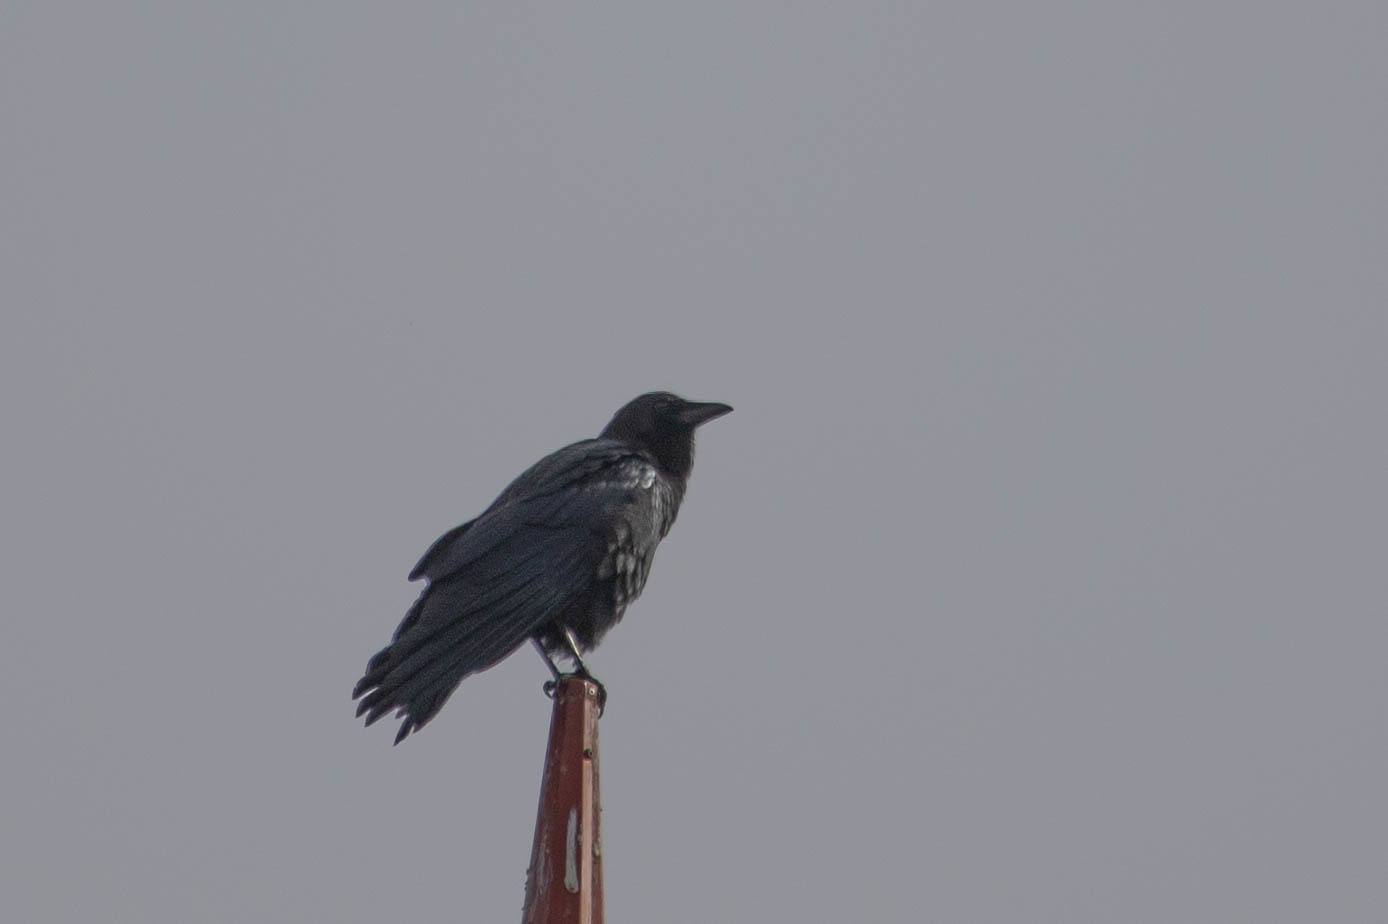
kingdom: Animalia
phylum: Chordata
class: Aves
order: Passeriformes
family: Corvidae
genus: Corvus
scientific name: Corvus corax
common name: Common raven
